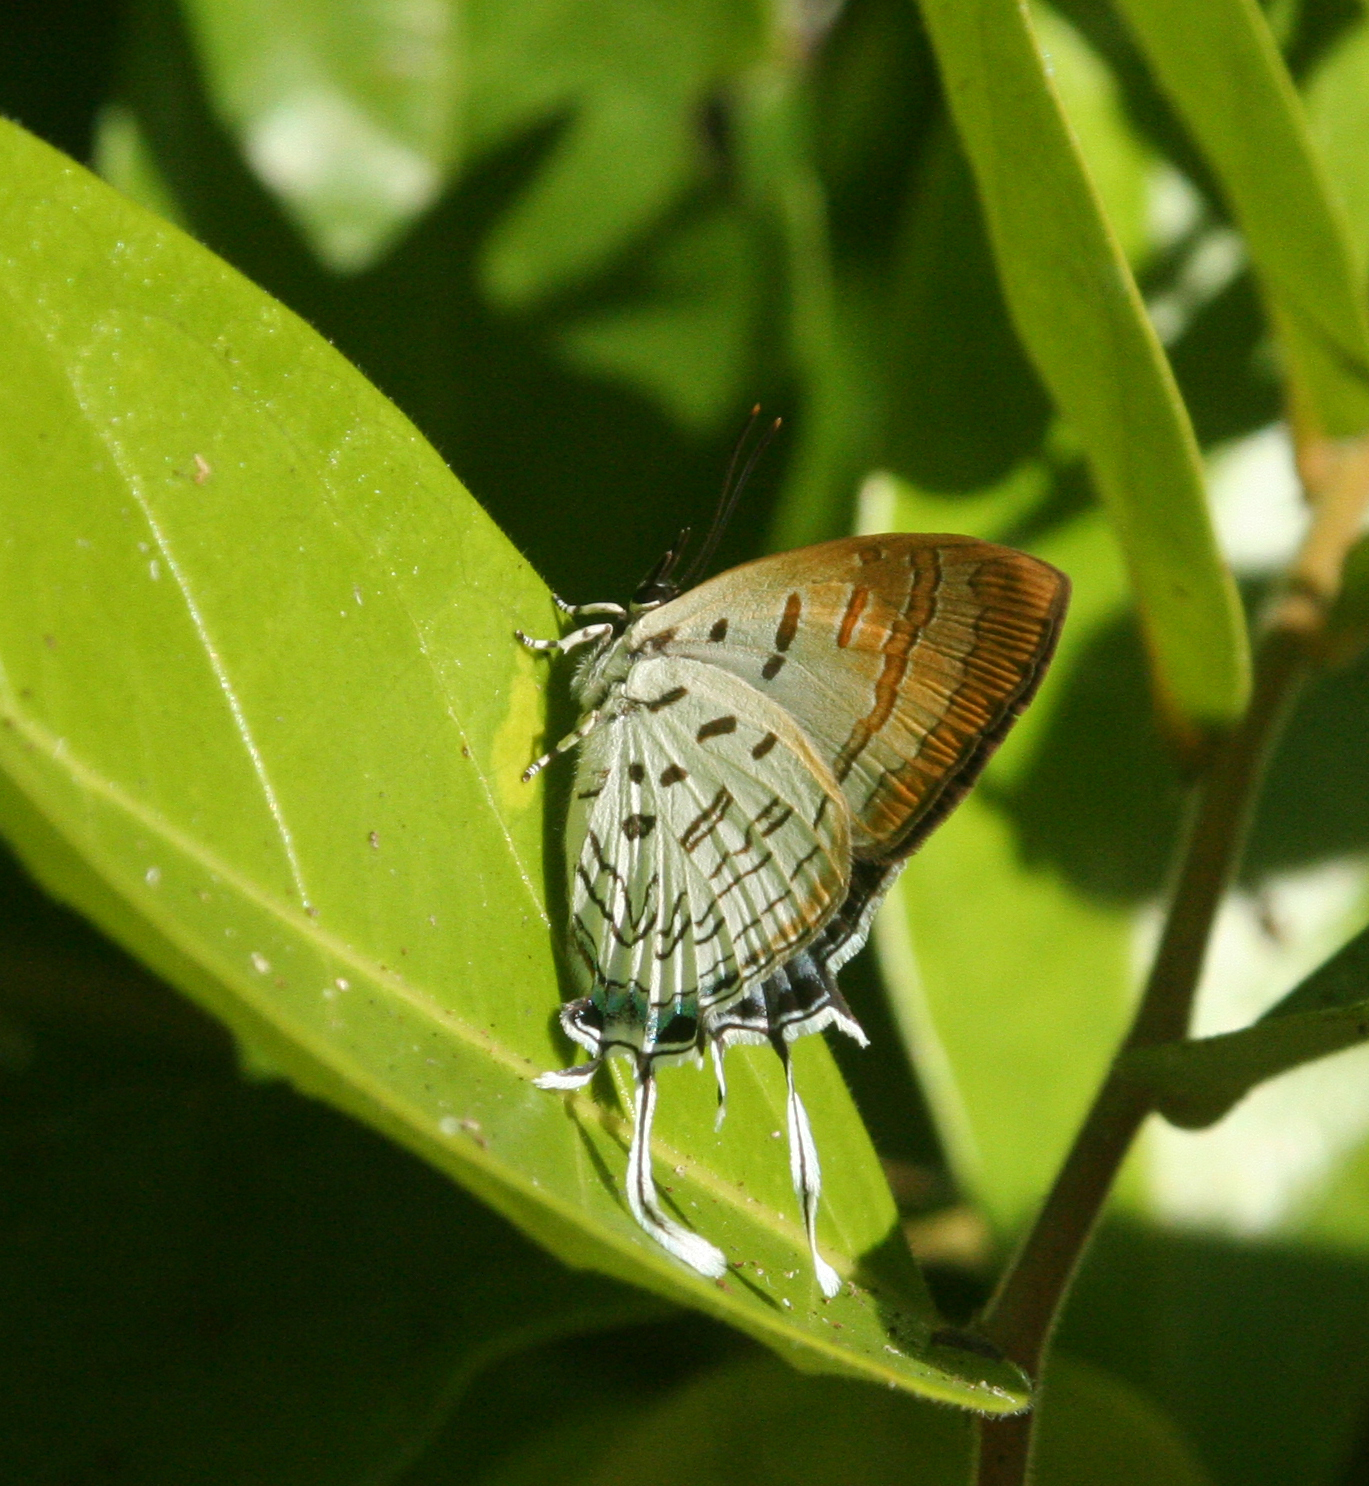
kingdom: Animalia
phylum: Arthropoda
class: Insecta
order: Lepidoptera
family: Lycaenidae
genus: Drupadia
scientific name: Drupadia theda
